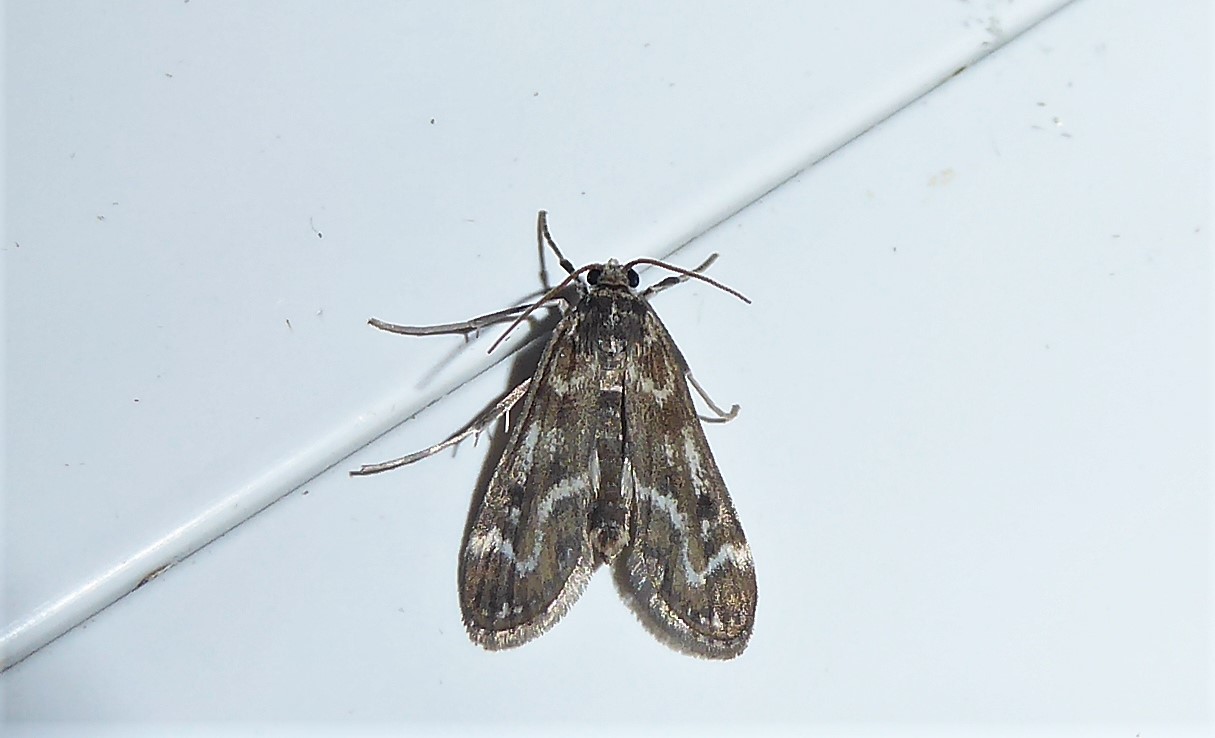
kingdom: Animalia
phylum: Arthropoda
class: Insecta
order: Lepidoptera
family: Crambidae
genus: Hygraula
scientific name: Hygraula nitens
